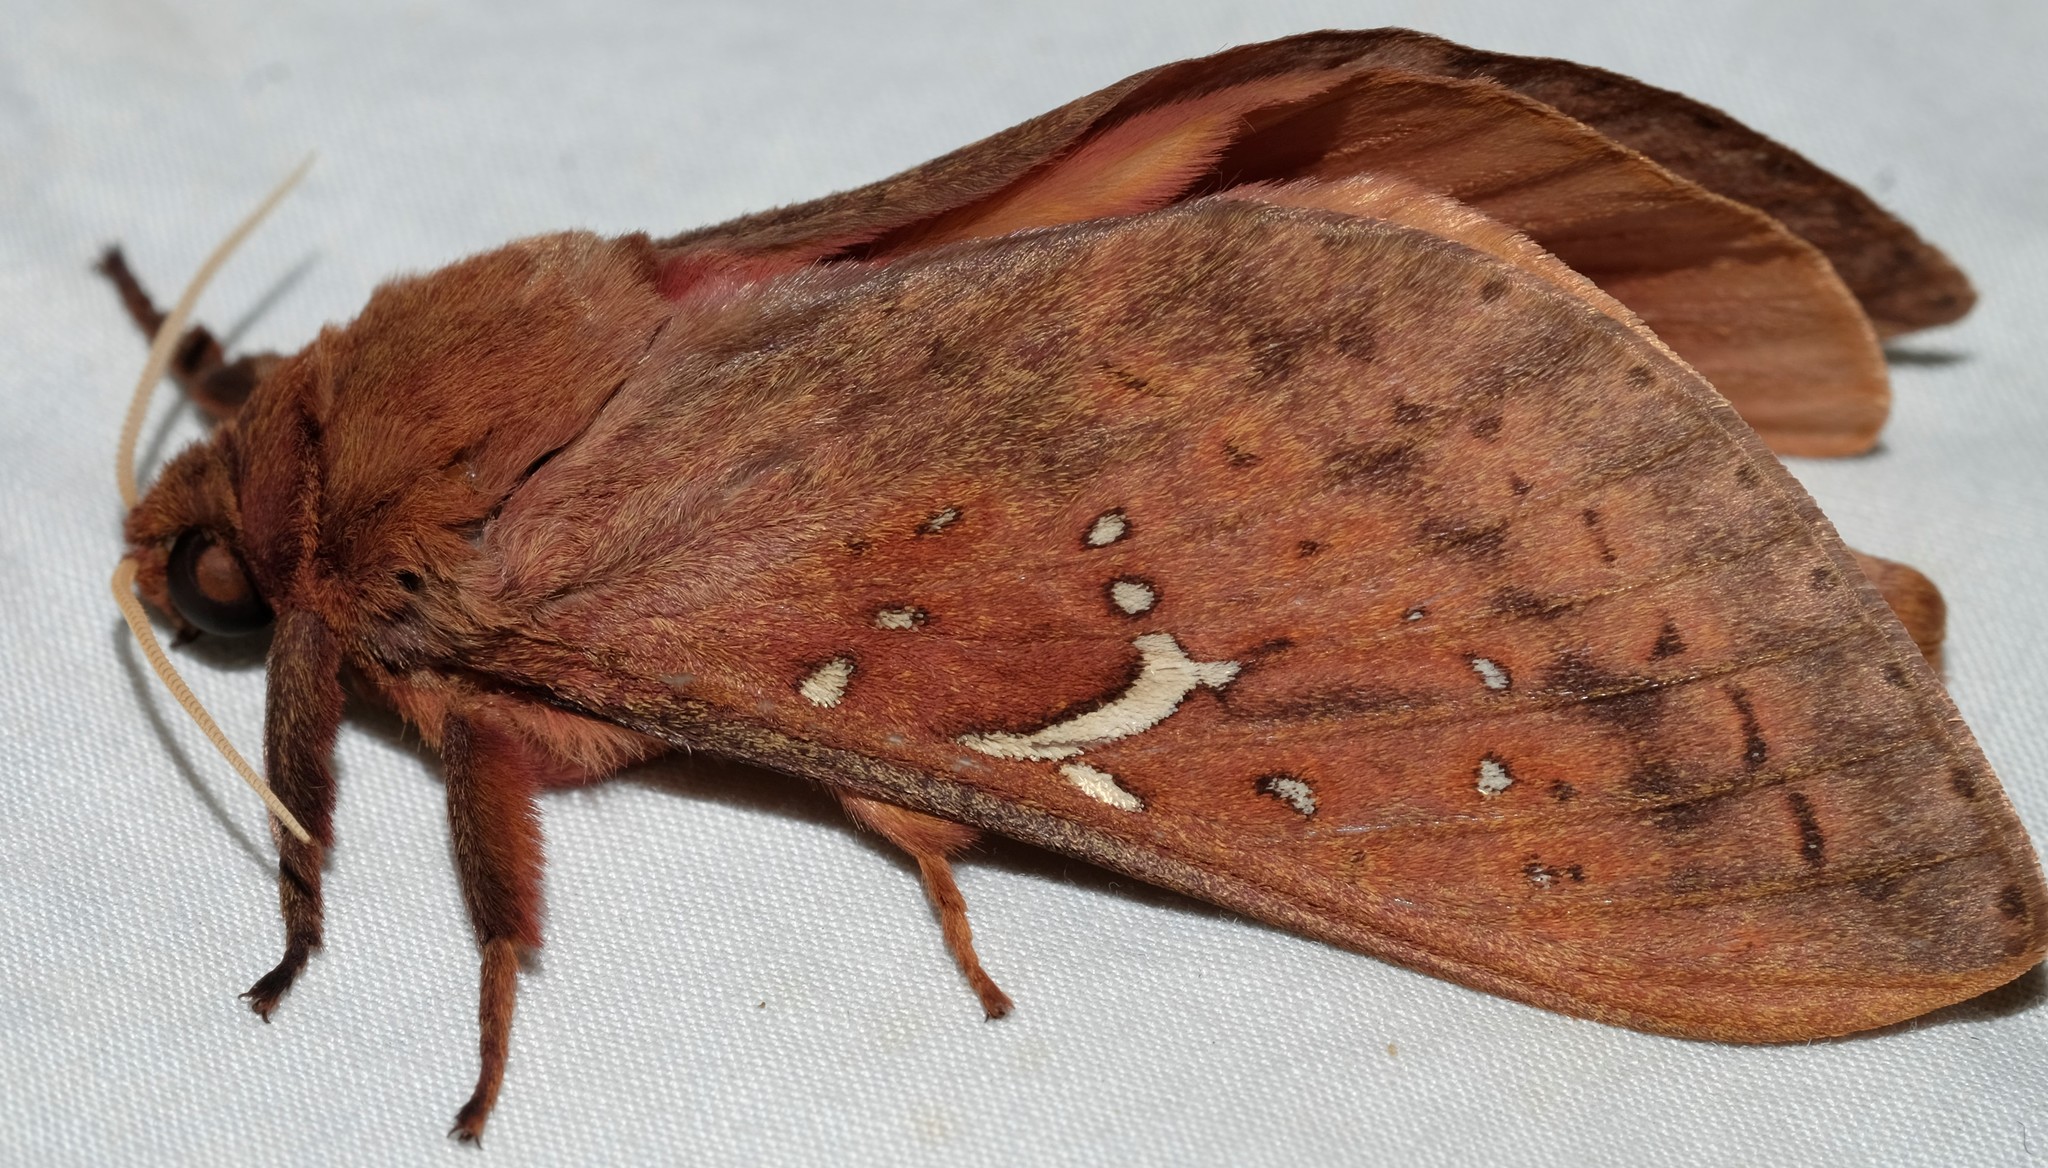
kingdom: Animalia
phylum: Arthropoda
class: Insecta
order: Lepidoptera
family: Hepialidae
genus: Oxycanus
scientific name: Oxycanus sirpus
